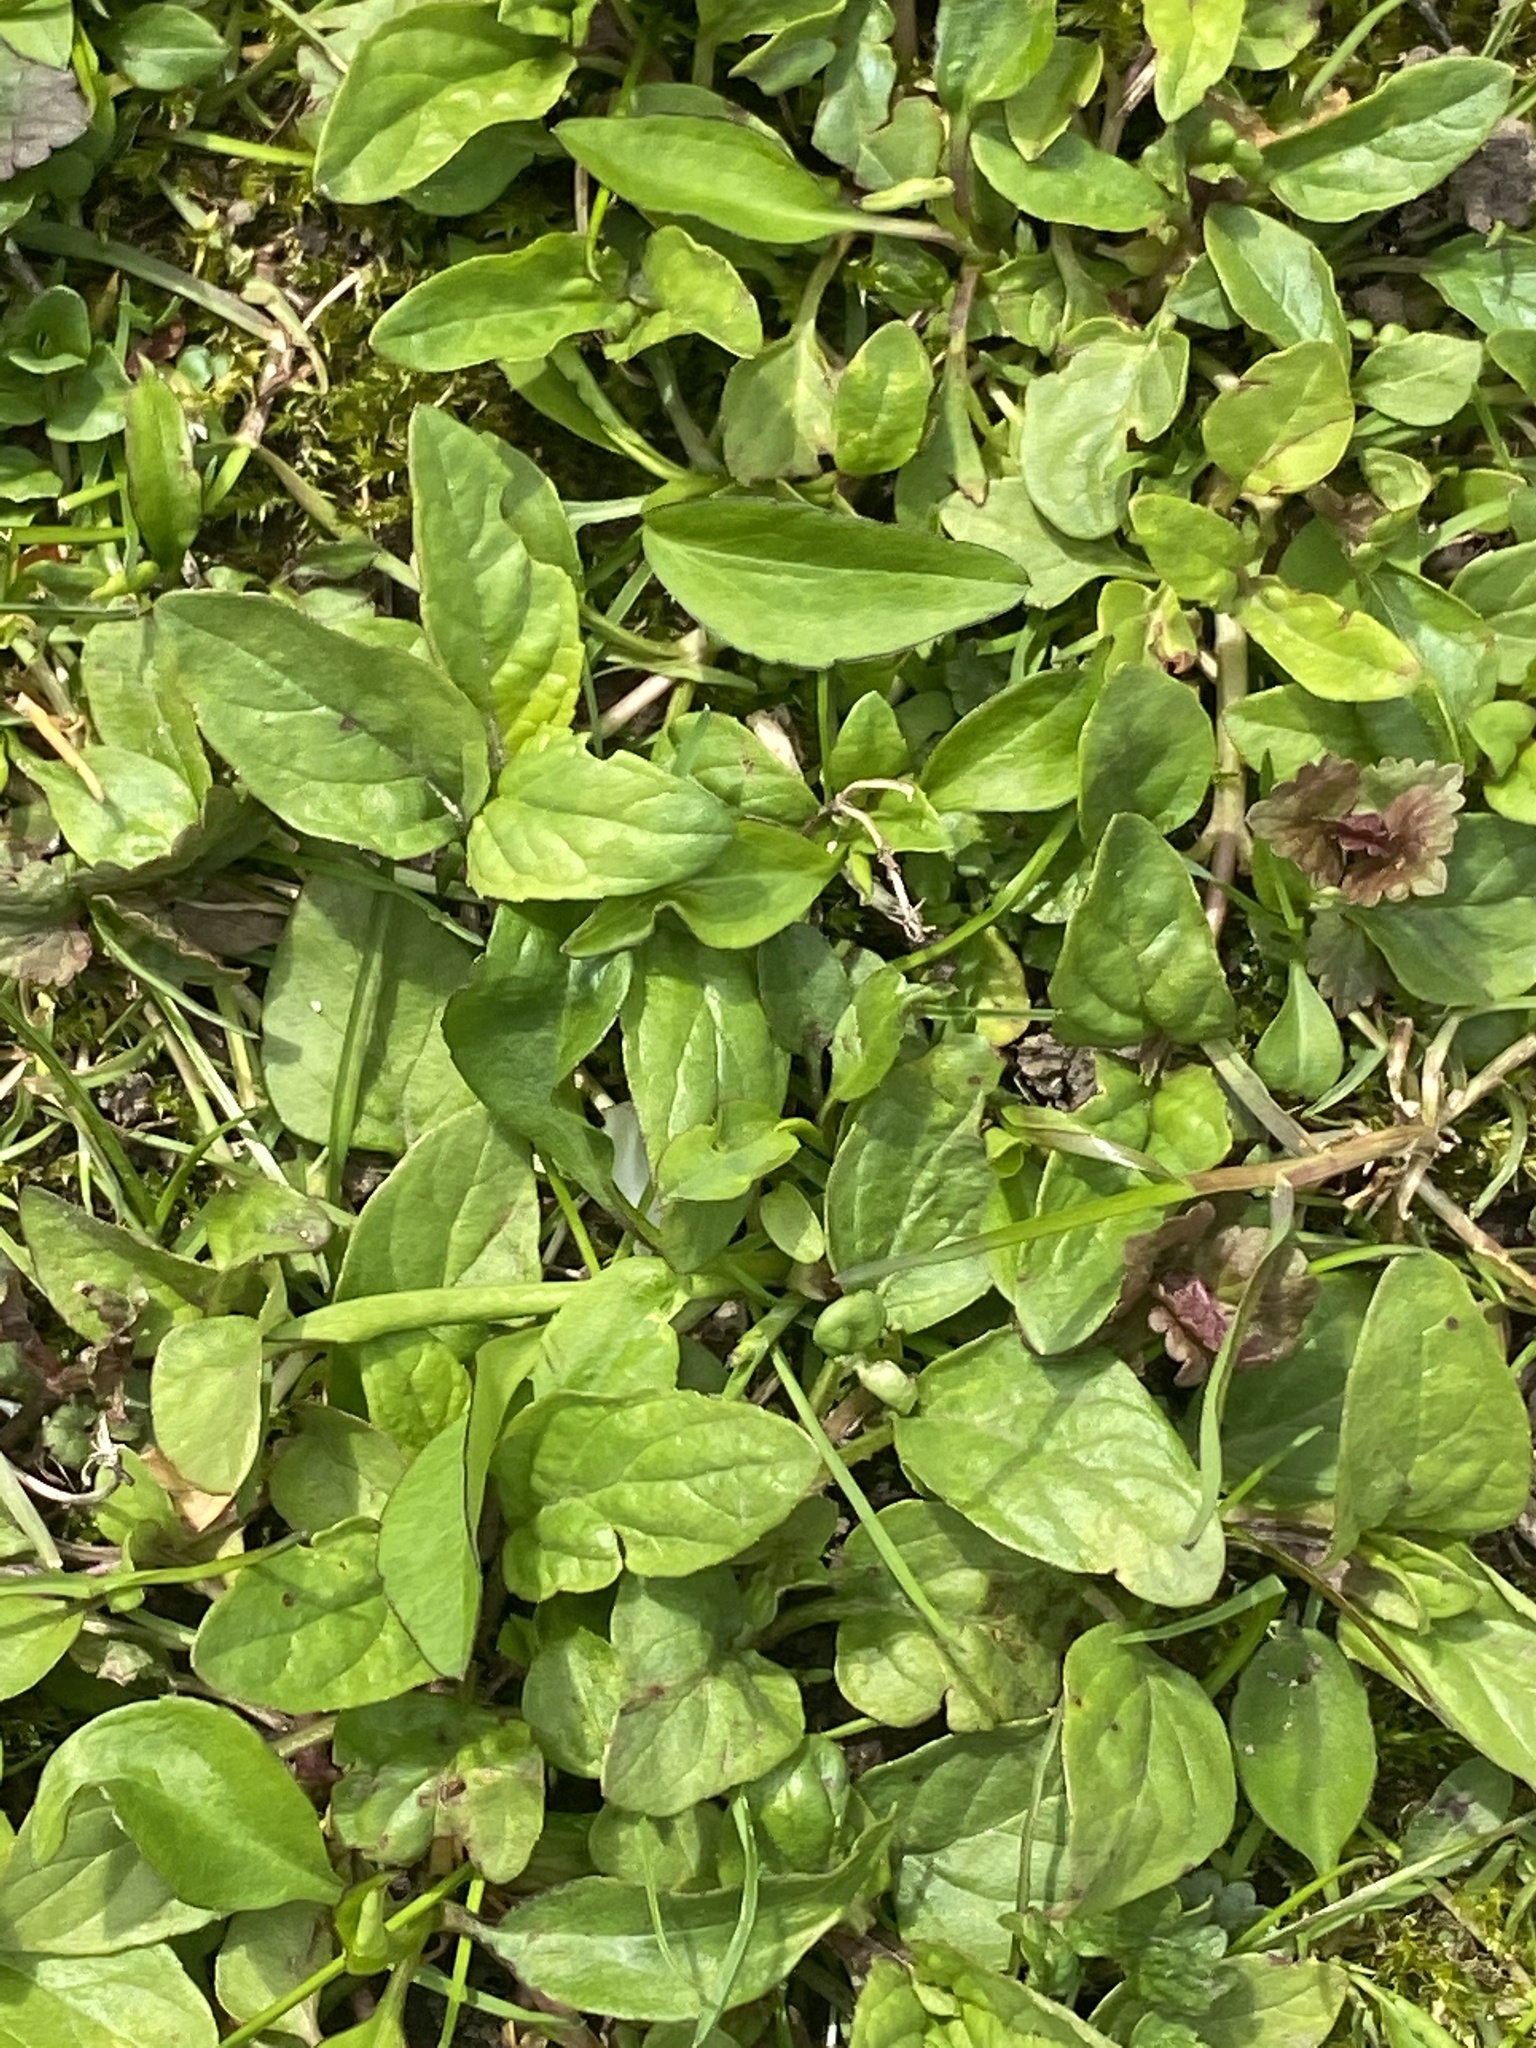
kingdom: Plantae
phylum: Tracheophyta
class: Magnoliopsida
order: Lamiales
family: Lamiaceae
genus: Prunella
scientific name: Prunella vulgaris
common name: Heal-all
